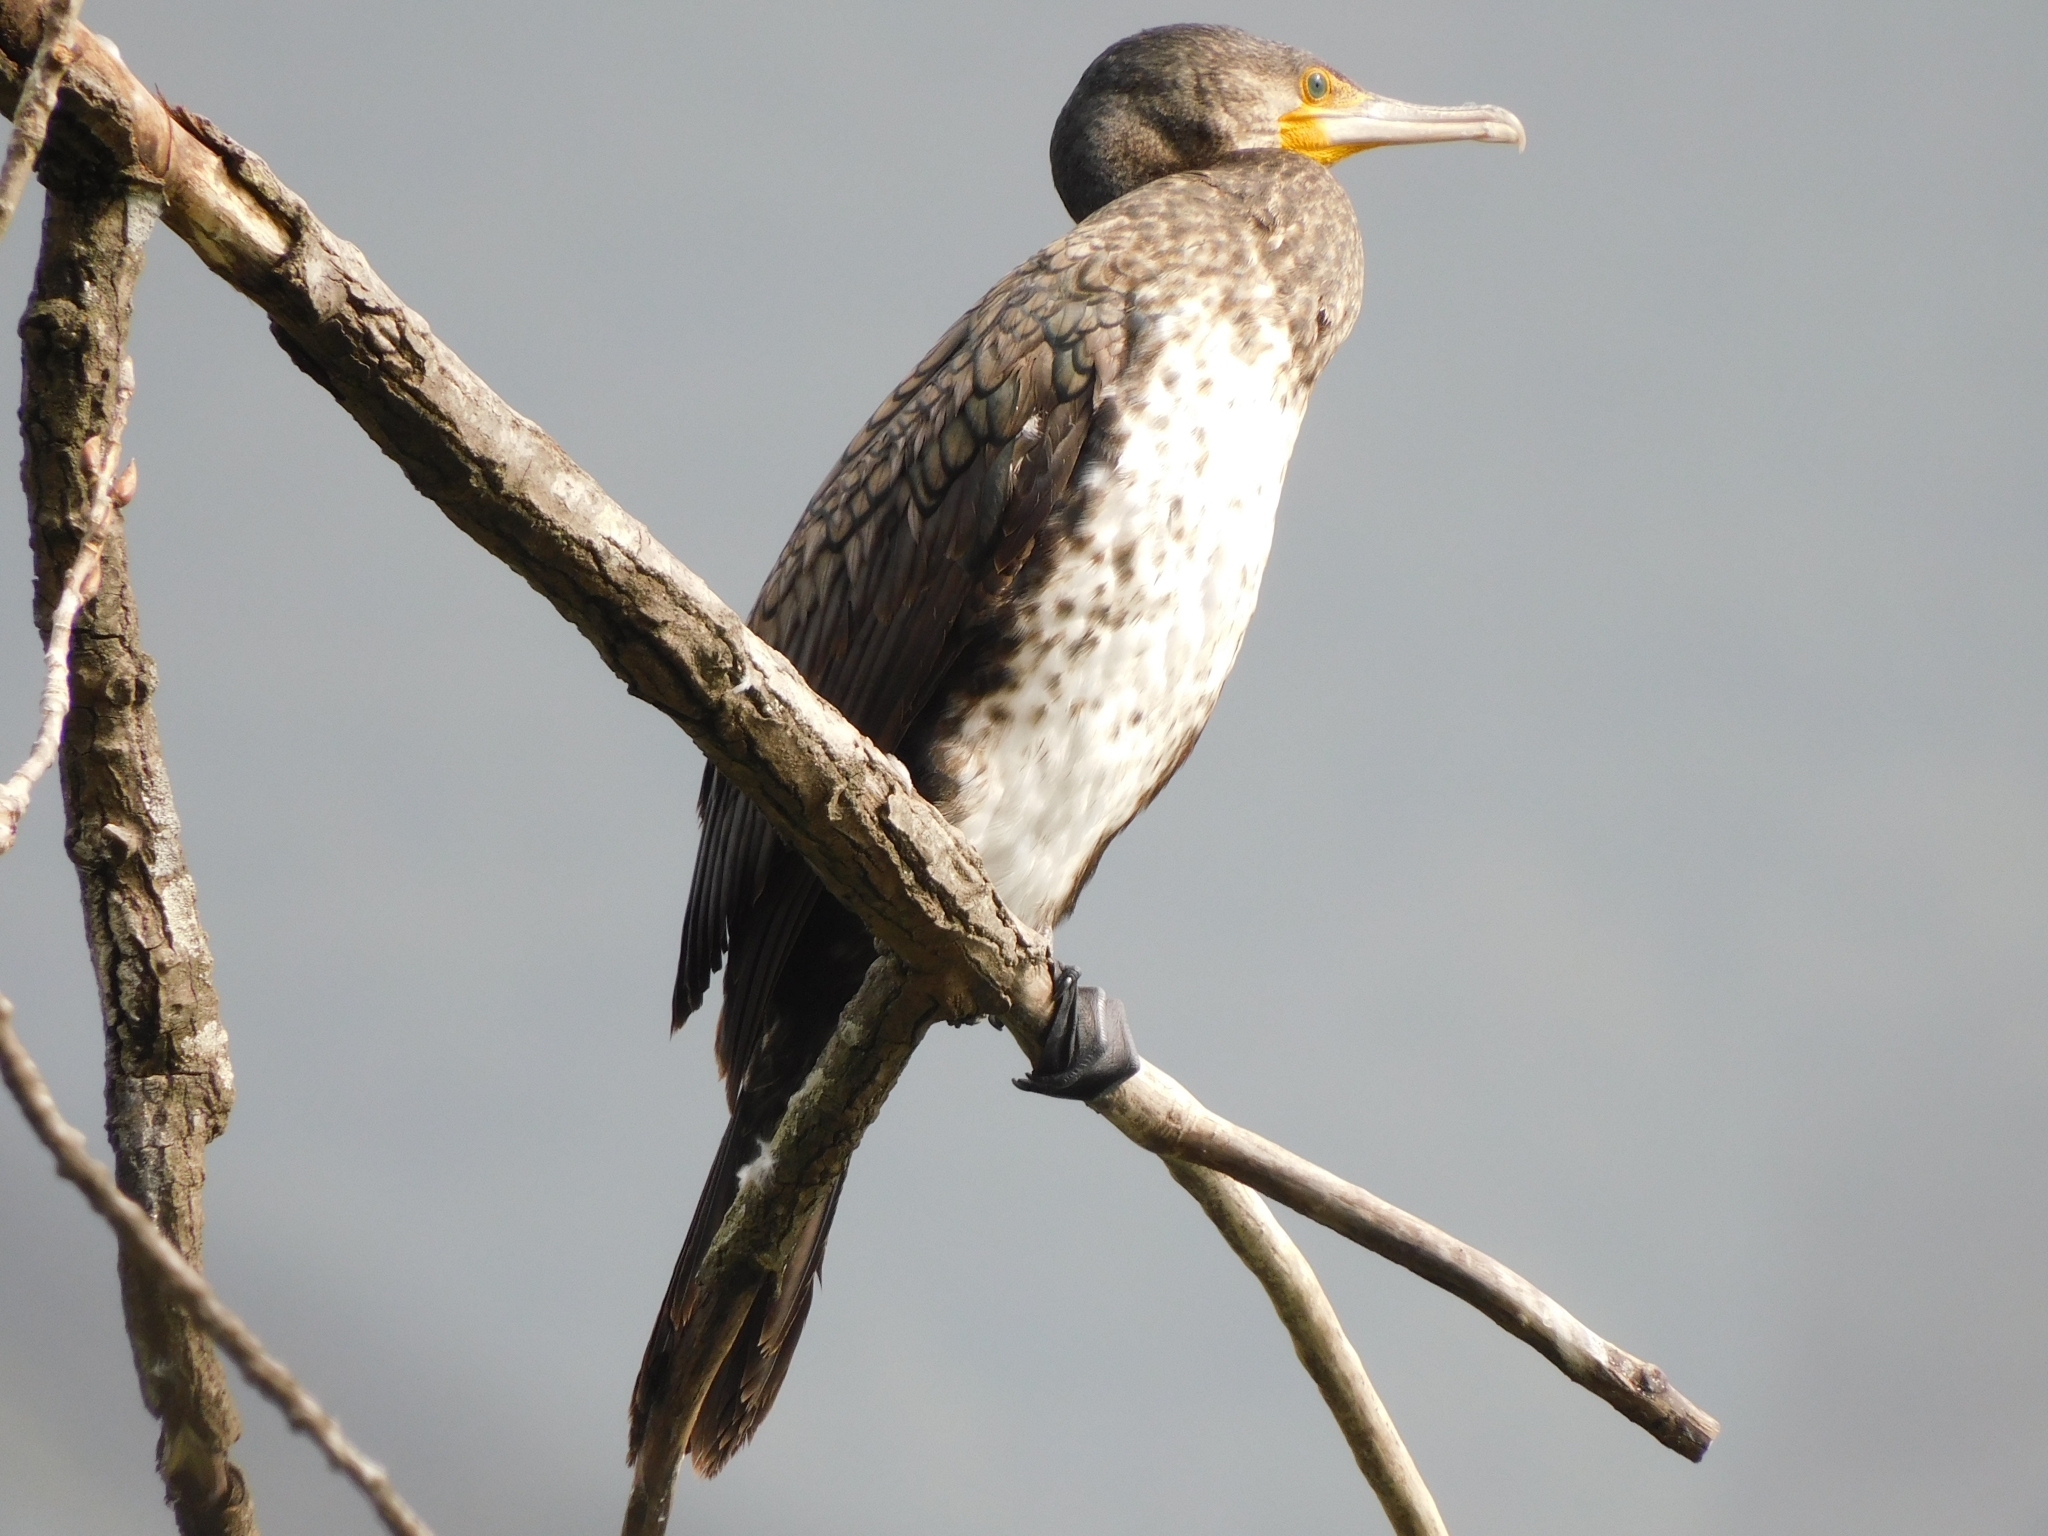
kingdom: Animalia
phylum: Chordata
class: Aves
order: Suliformes
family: Phalacrocoracidae
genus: Phalacrocorax
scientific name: Phalacrocorax carbo
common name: Great cormorant
